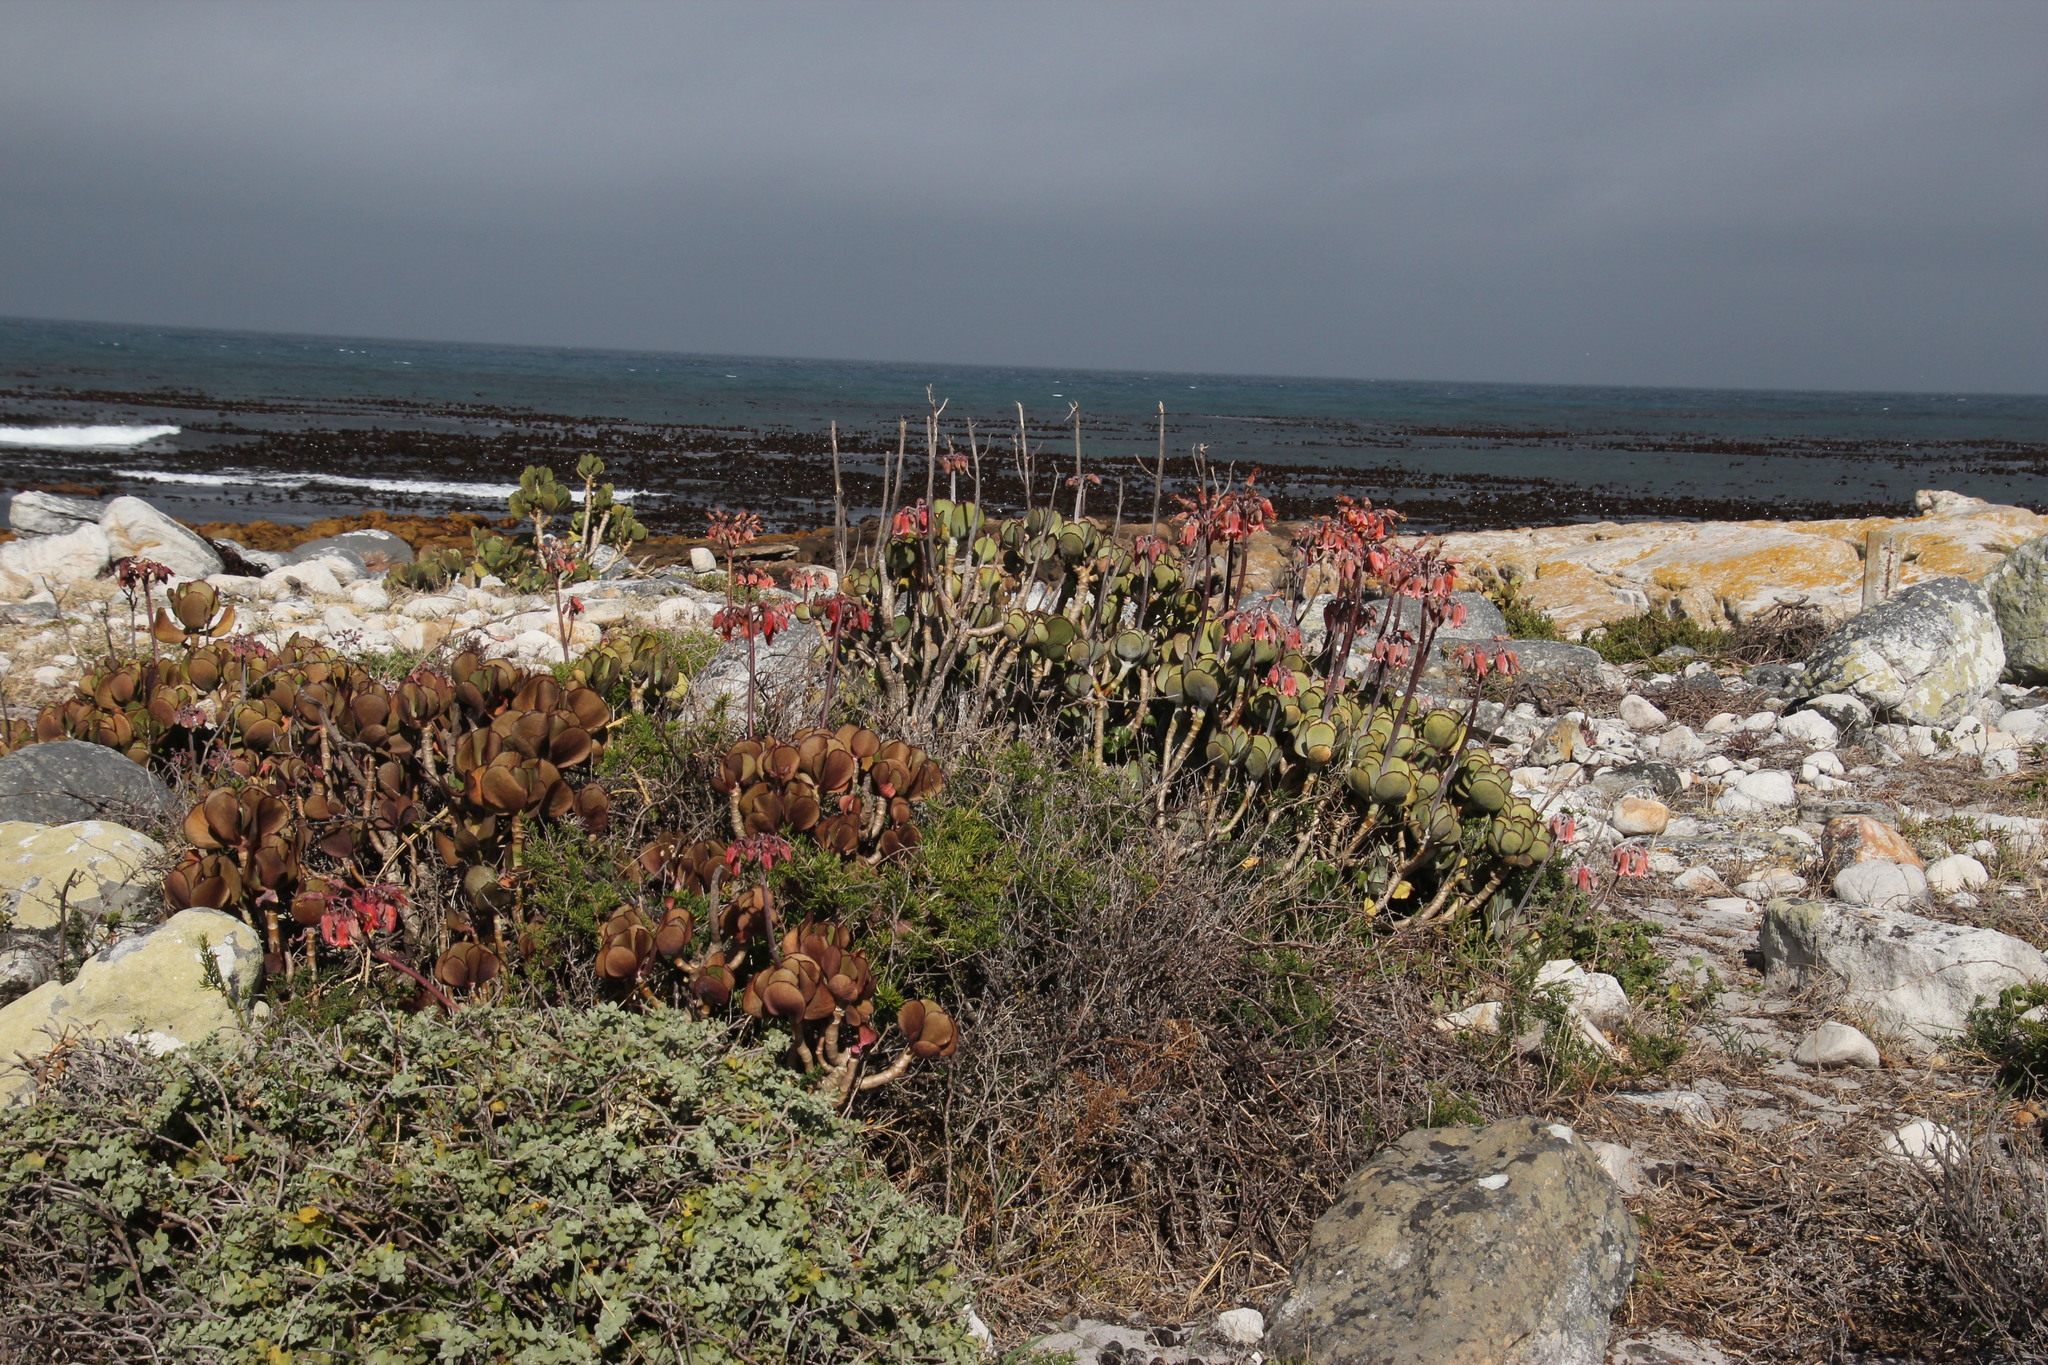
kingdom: Plantae
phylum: Tracheophyta
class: Magnoliopsida
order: Saxifragales
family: Crassulaceae
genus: Cotyledon
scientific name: Cotyledon orbiculata
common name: Pig's ear
